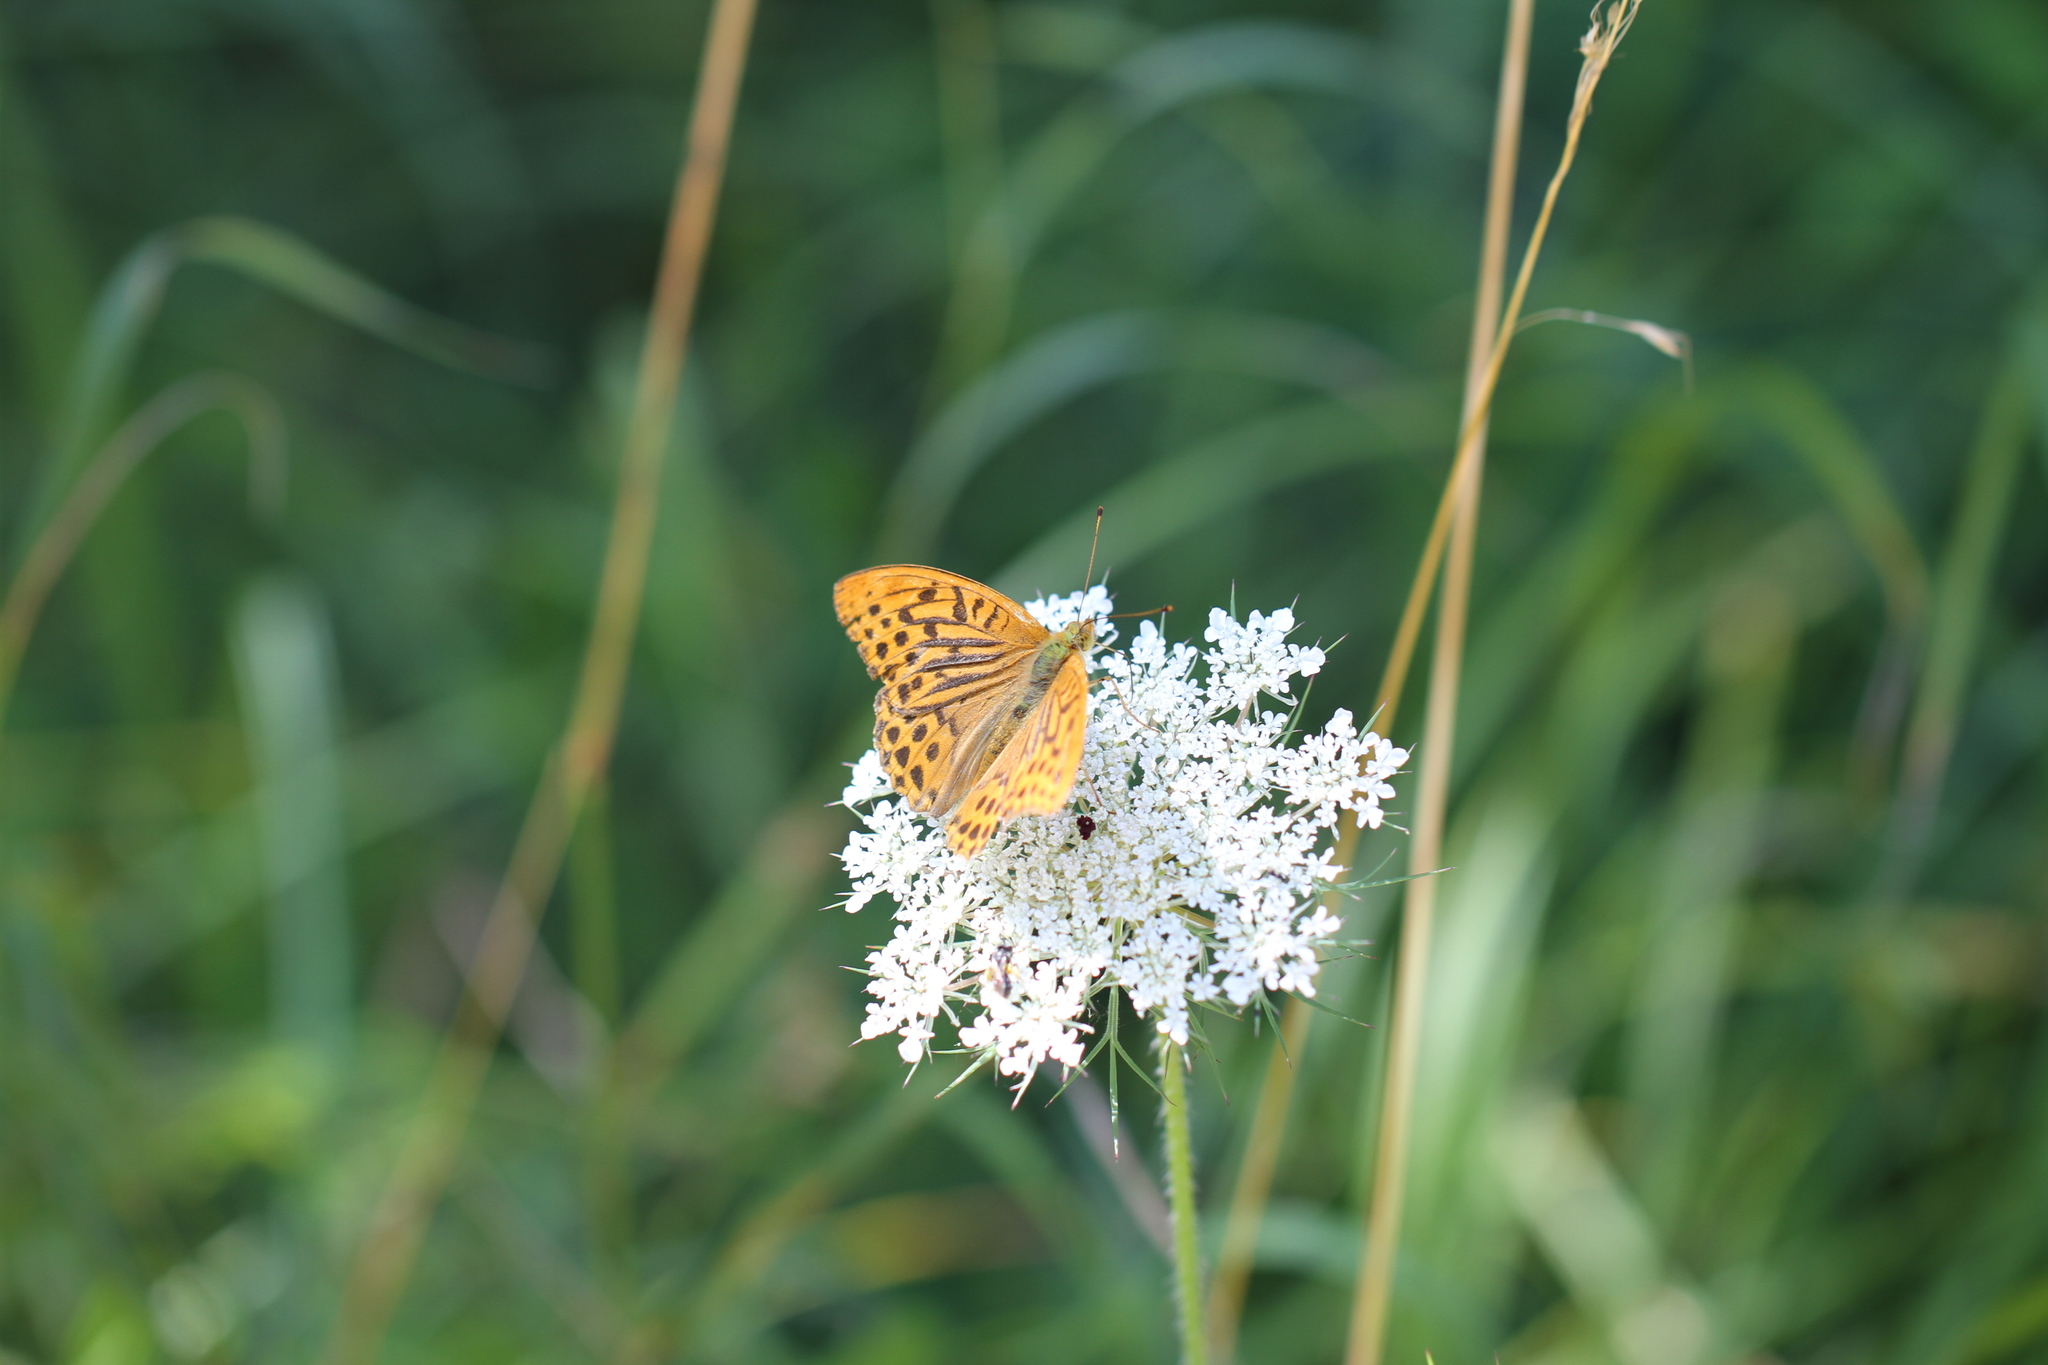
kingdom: Animalia
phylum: Arthropoda
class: Insecta
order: Lepidoptera
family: Nymphalidae
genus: Argynnis
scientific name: Argynnis paphia
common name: Silver-washed fritillary
